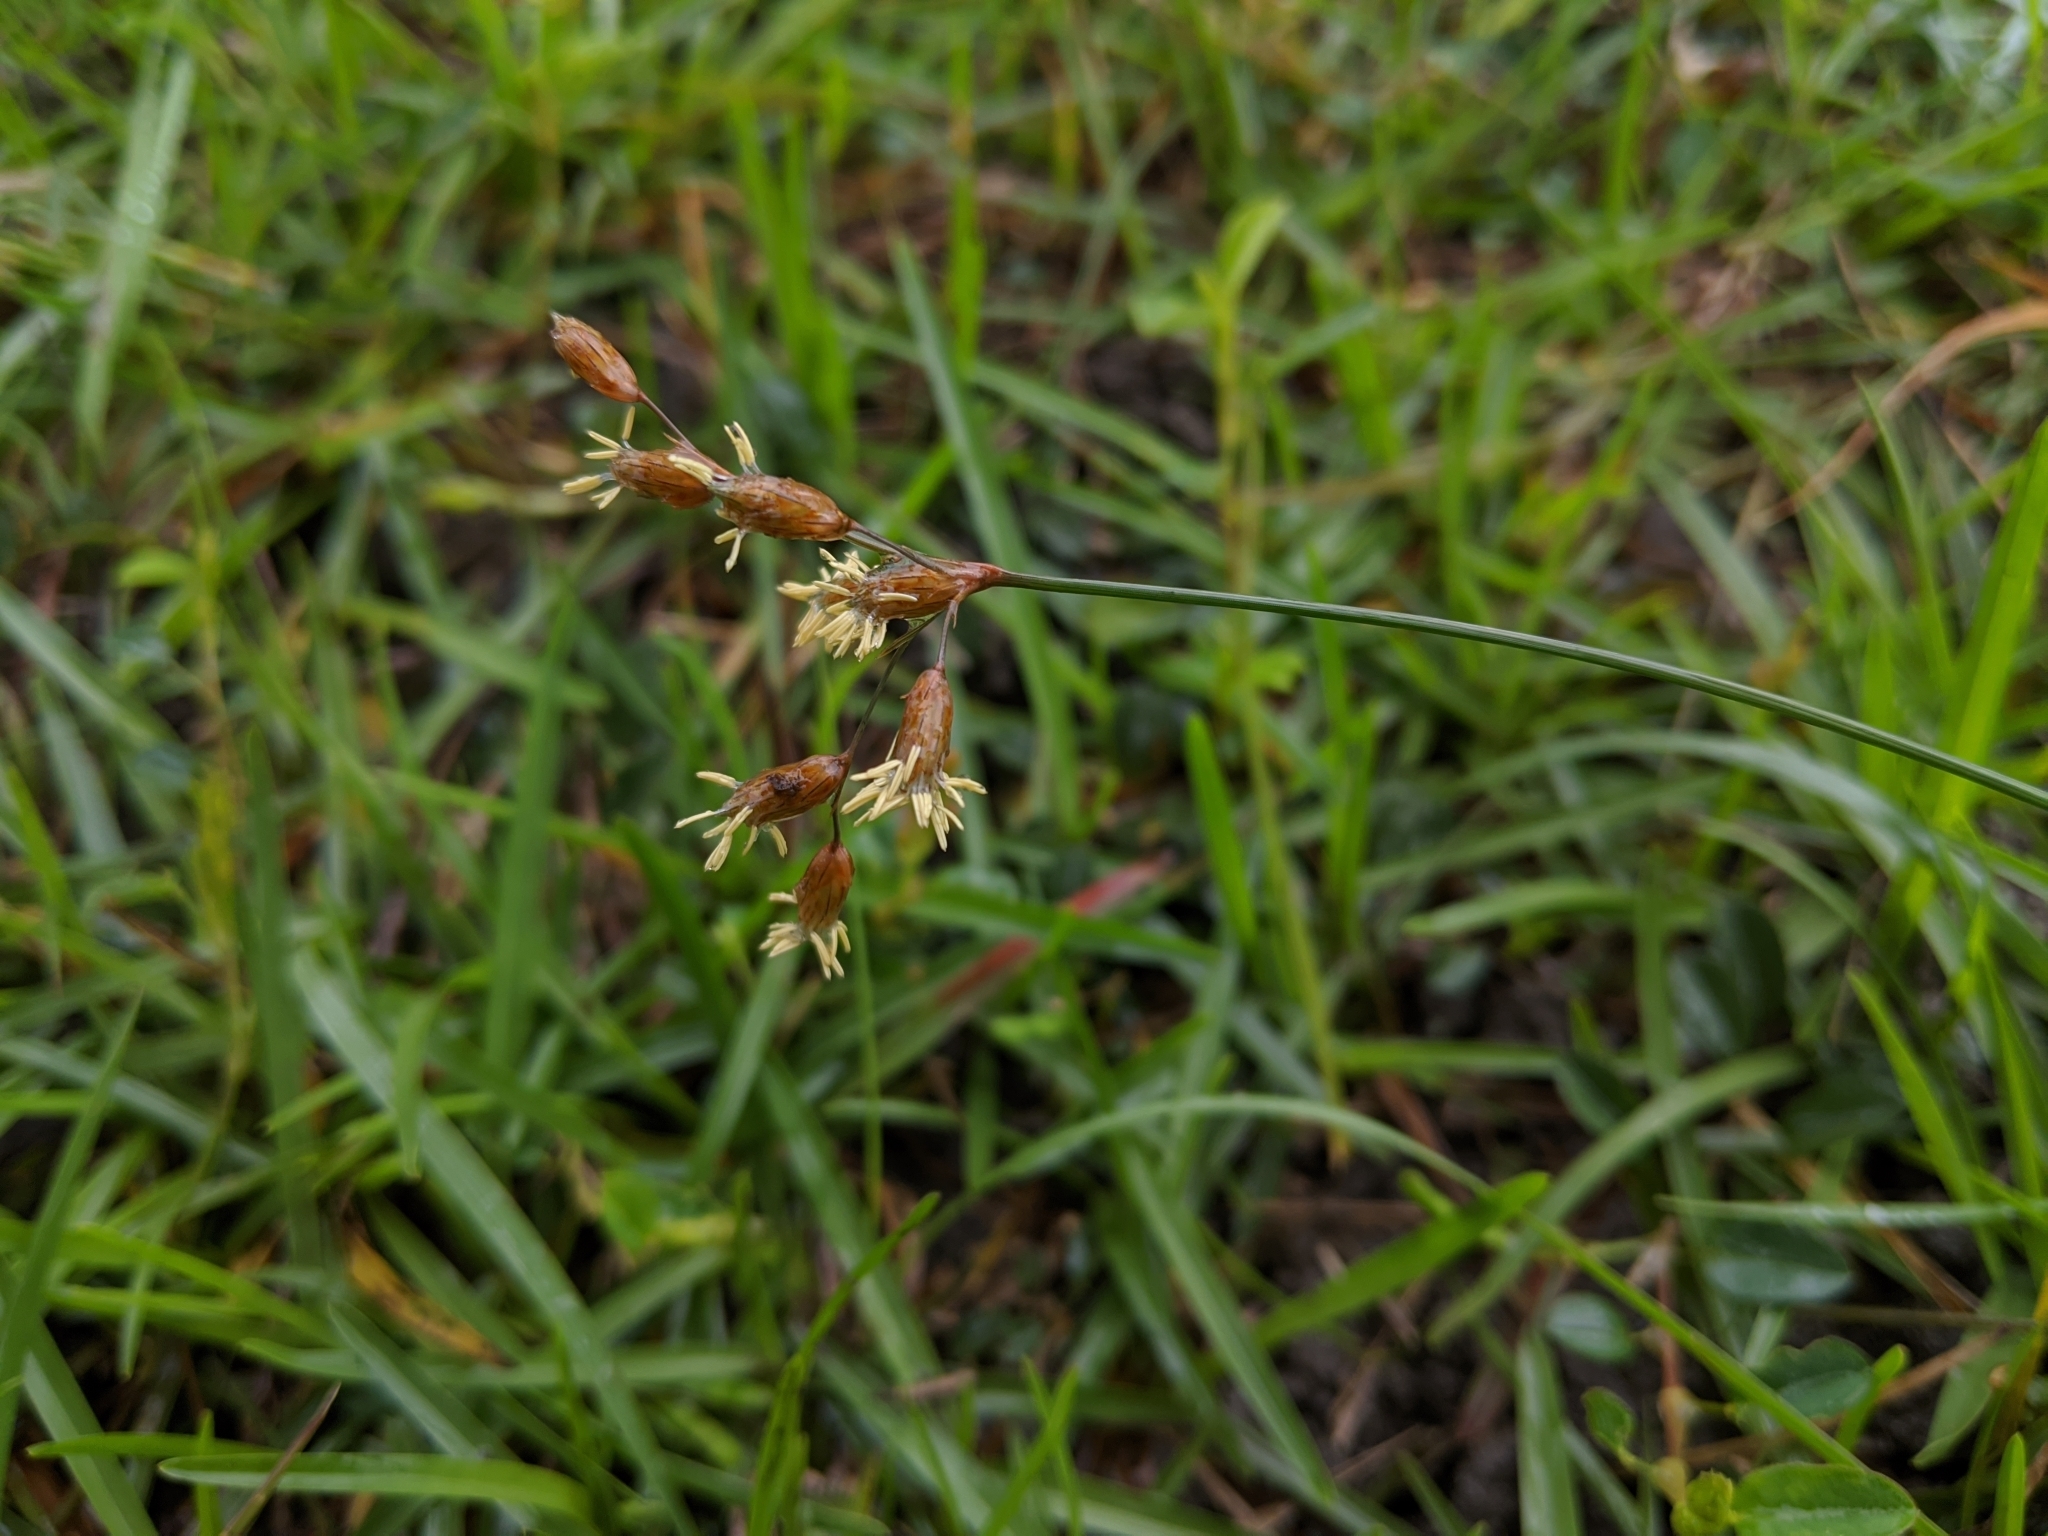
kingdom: Plantae
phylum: Tracheophyta
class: Liliopsida
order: Poales
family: Cyperaceae
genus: Fimbristylis
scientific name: Fimbristylis subinclinata
